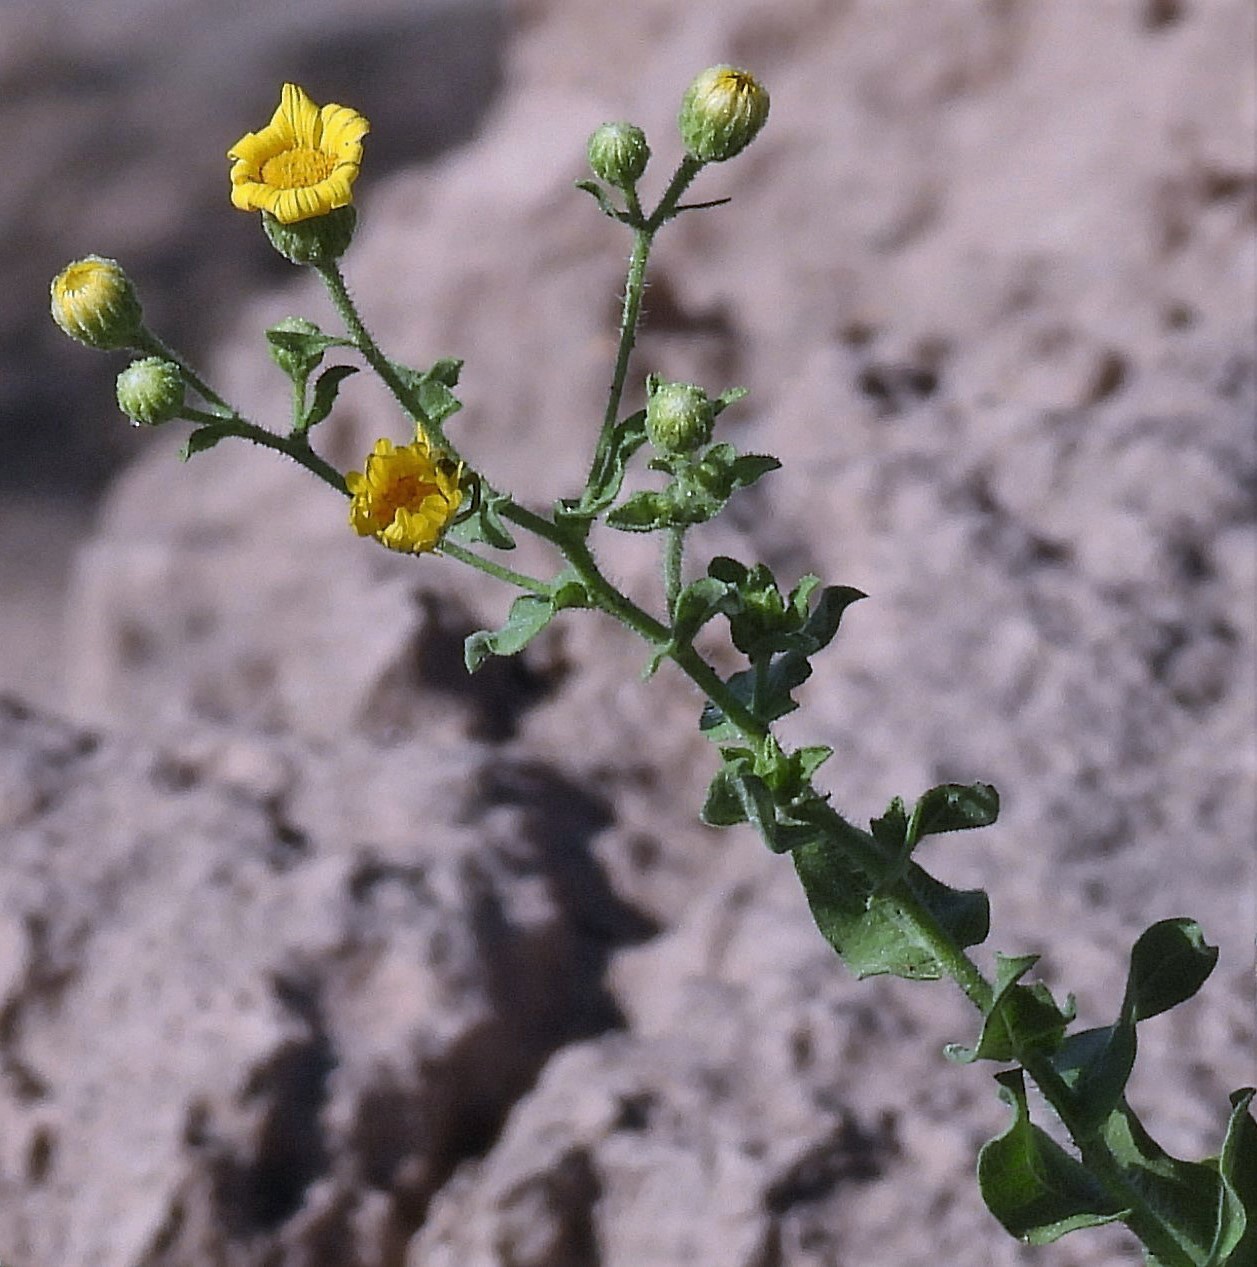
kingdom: Plantae
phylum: Tracheophyta
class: Magnoliopsida
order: Asterales
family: Asteraceae
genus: Heterotheca
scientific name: Heterotheca subaxillaris
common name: Camphorweed
